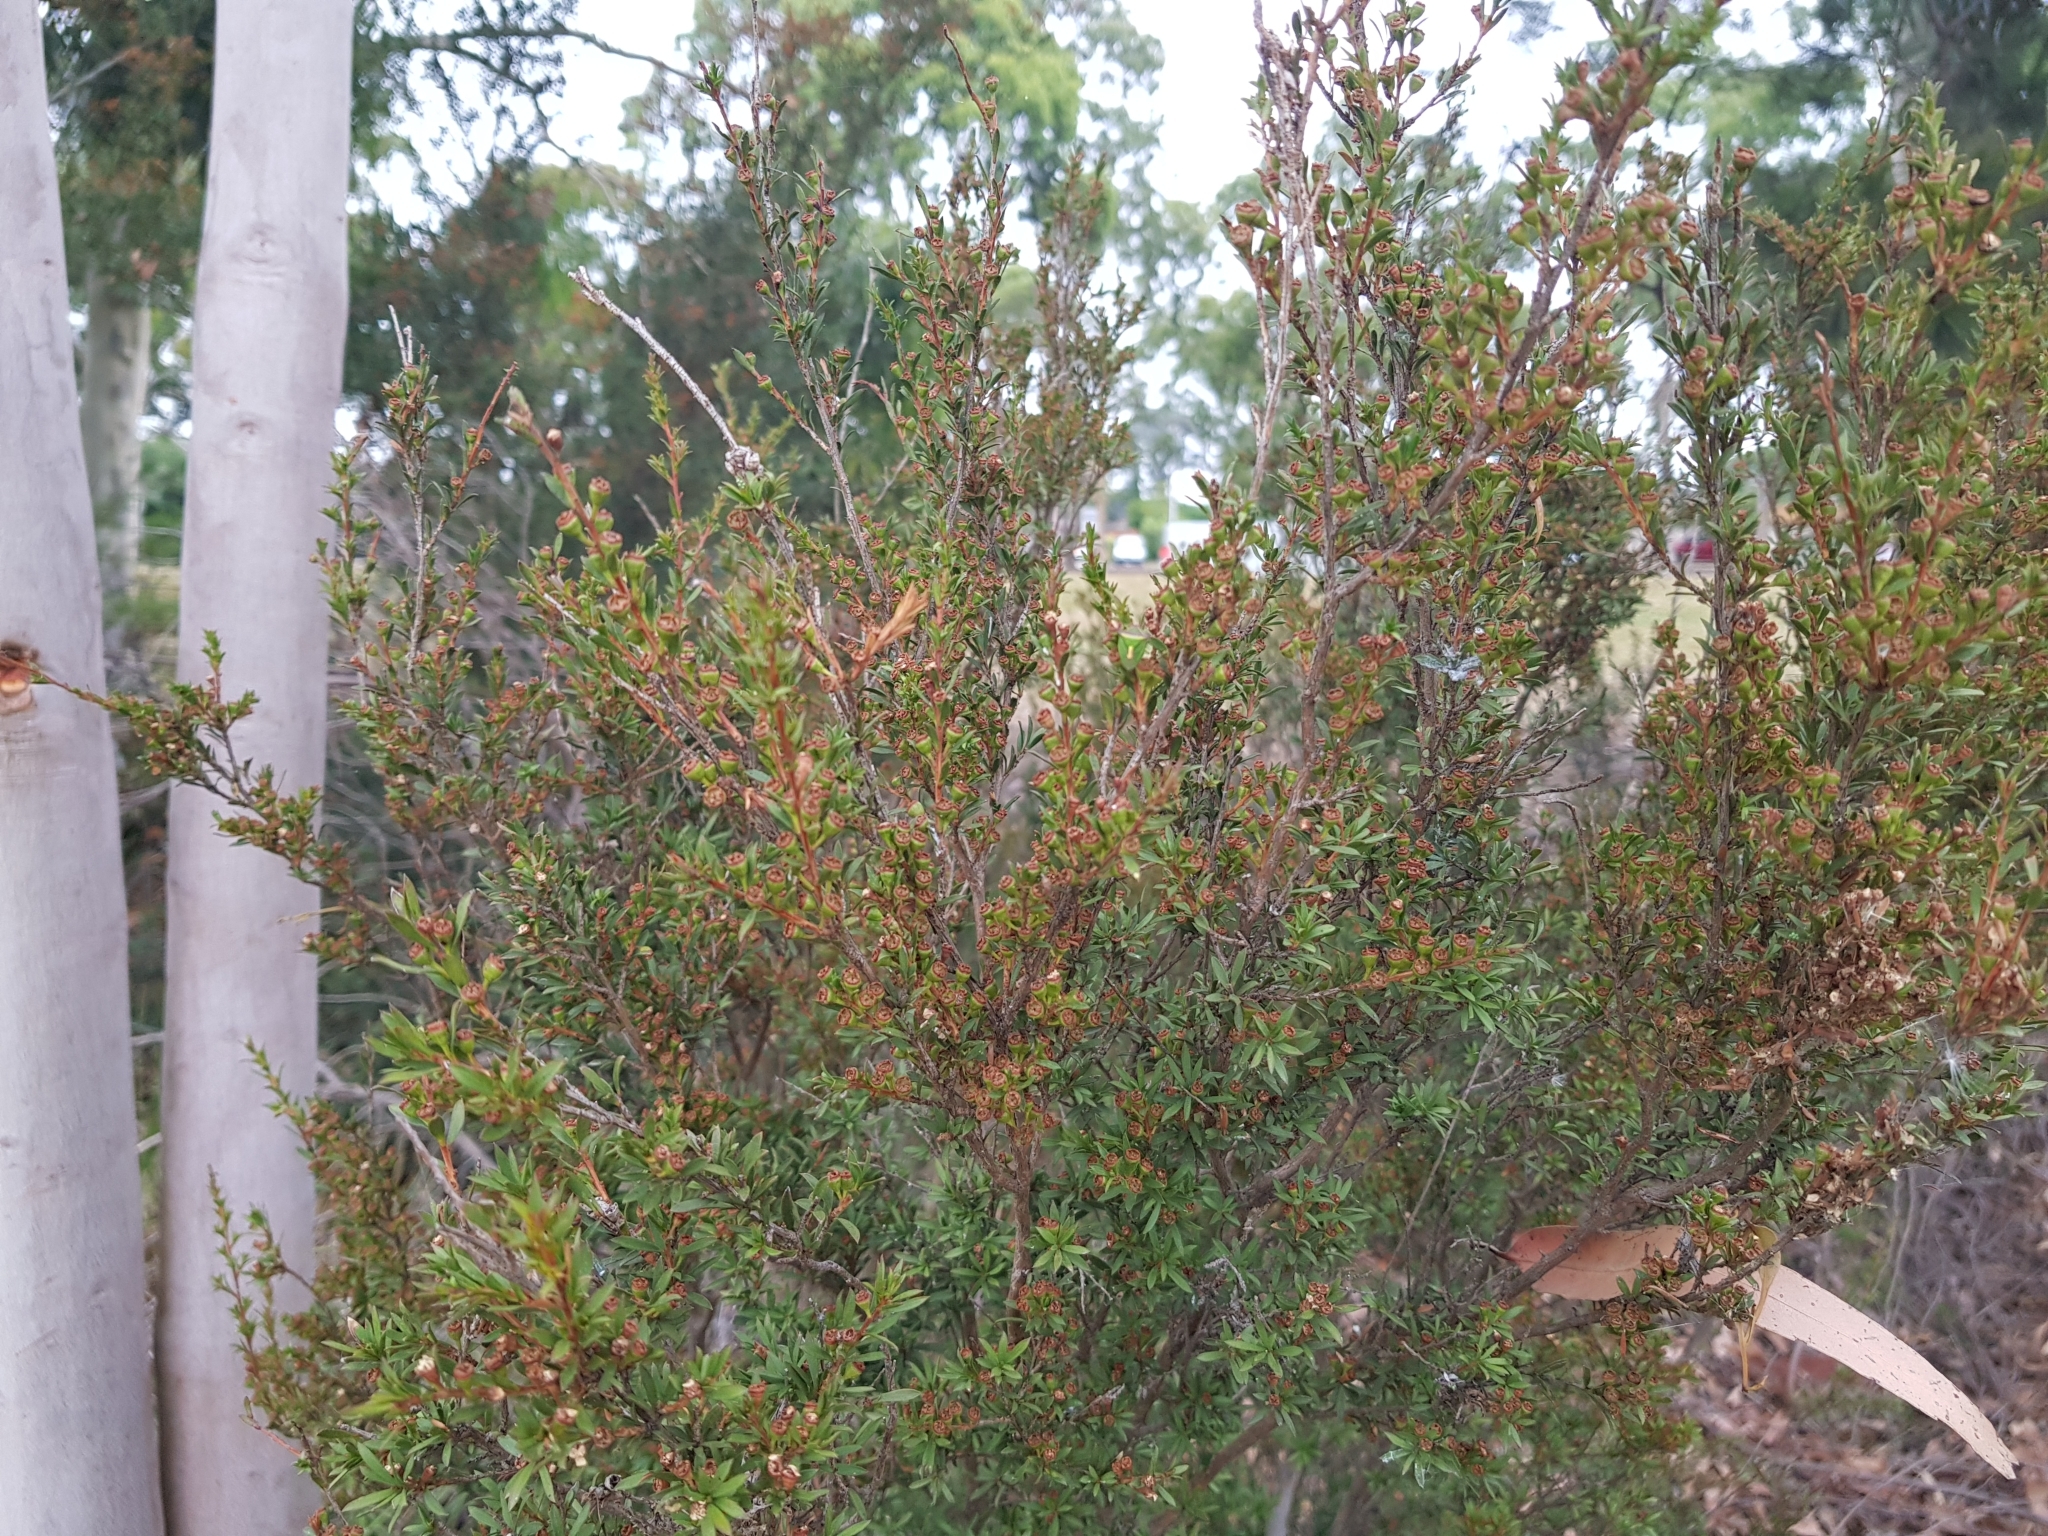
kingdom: Animalia
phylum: Arthropoda
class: Insecta
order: Hemiptera
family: Pentatomidae
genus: Cuspicona
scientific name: Cuspicona
